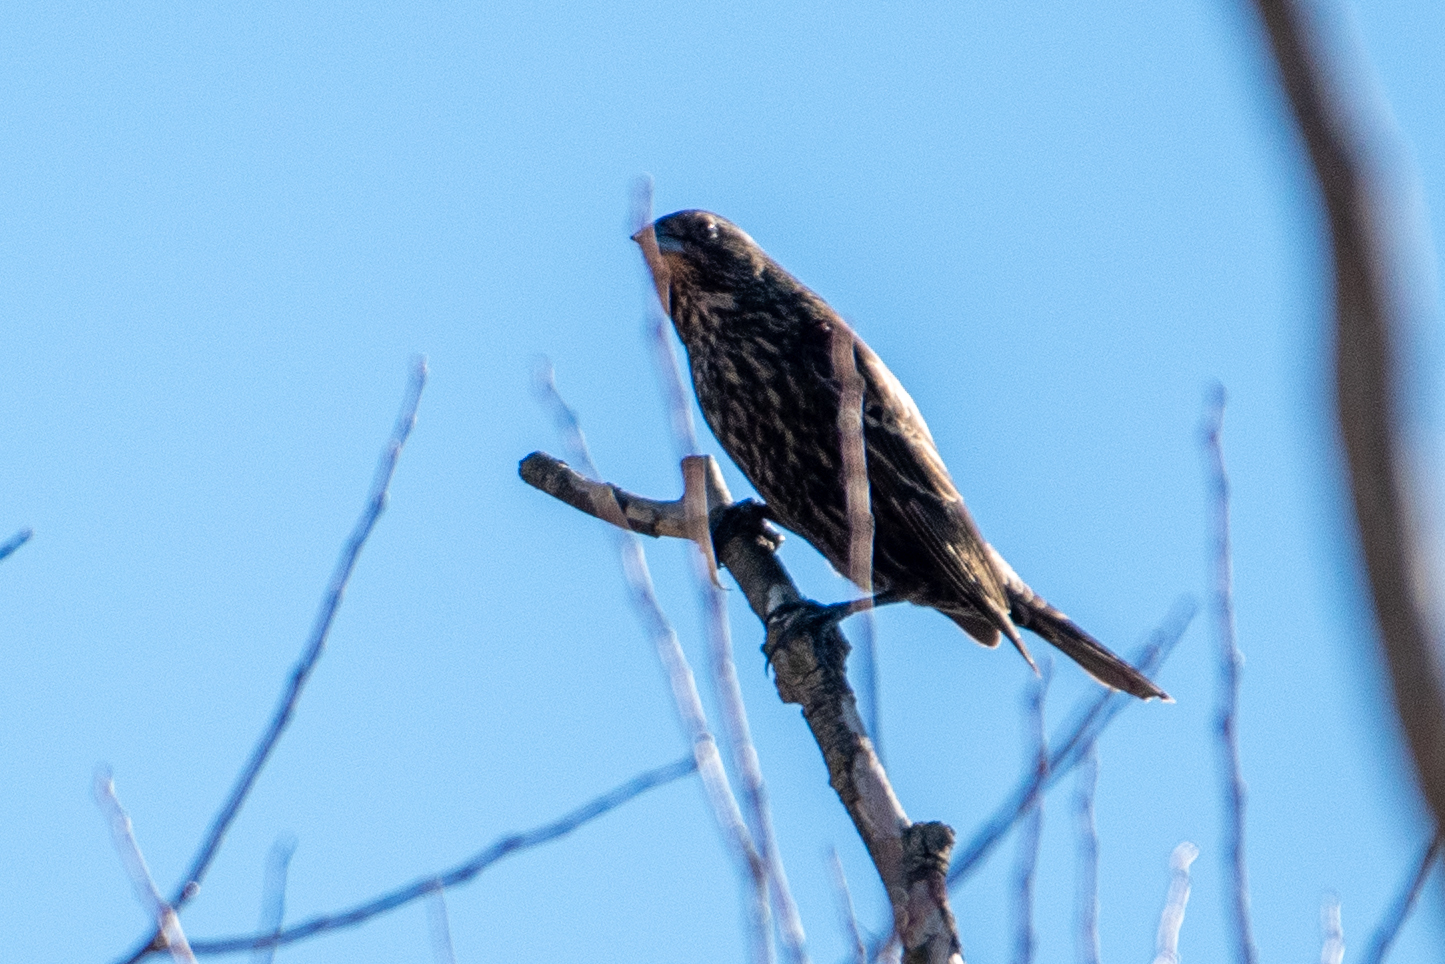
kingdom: Animalia
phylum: Chordata
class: Aves
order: Passeriformes
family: Icteridae
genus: Agelaius
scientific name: Agelaius phoeniceus
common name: Red-winged blackbird
